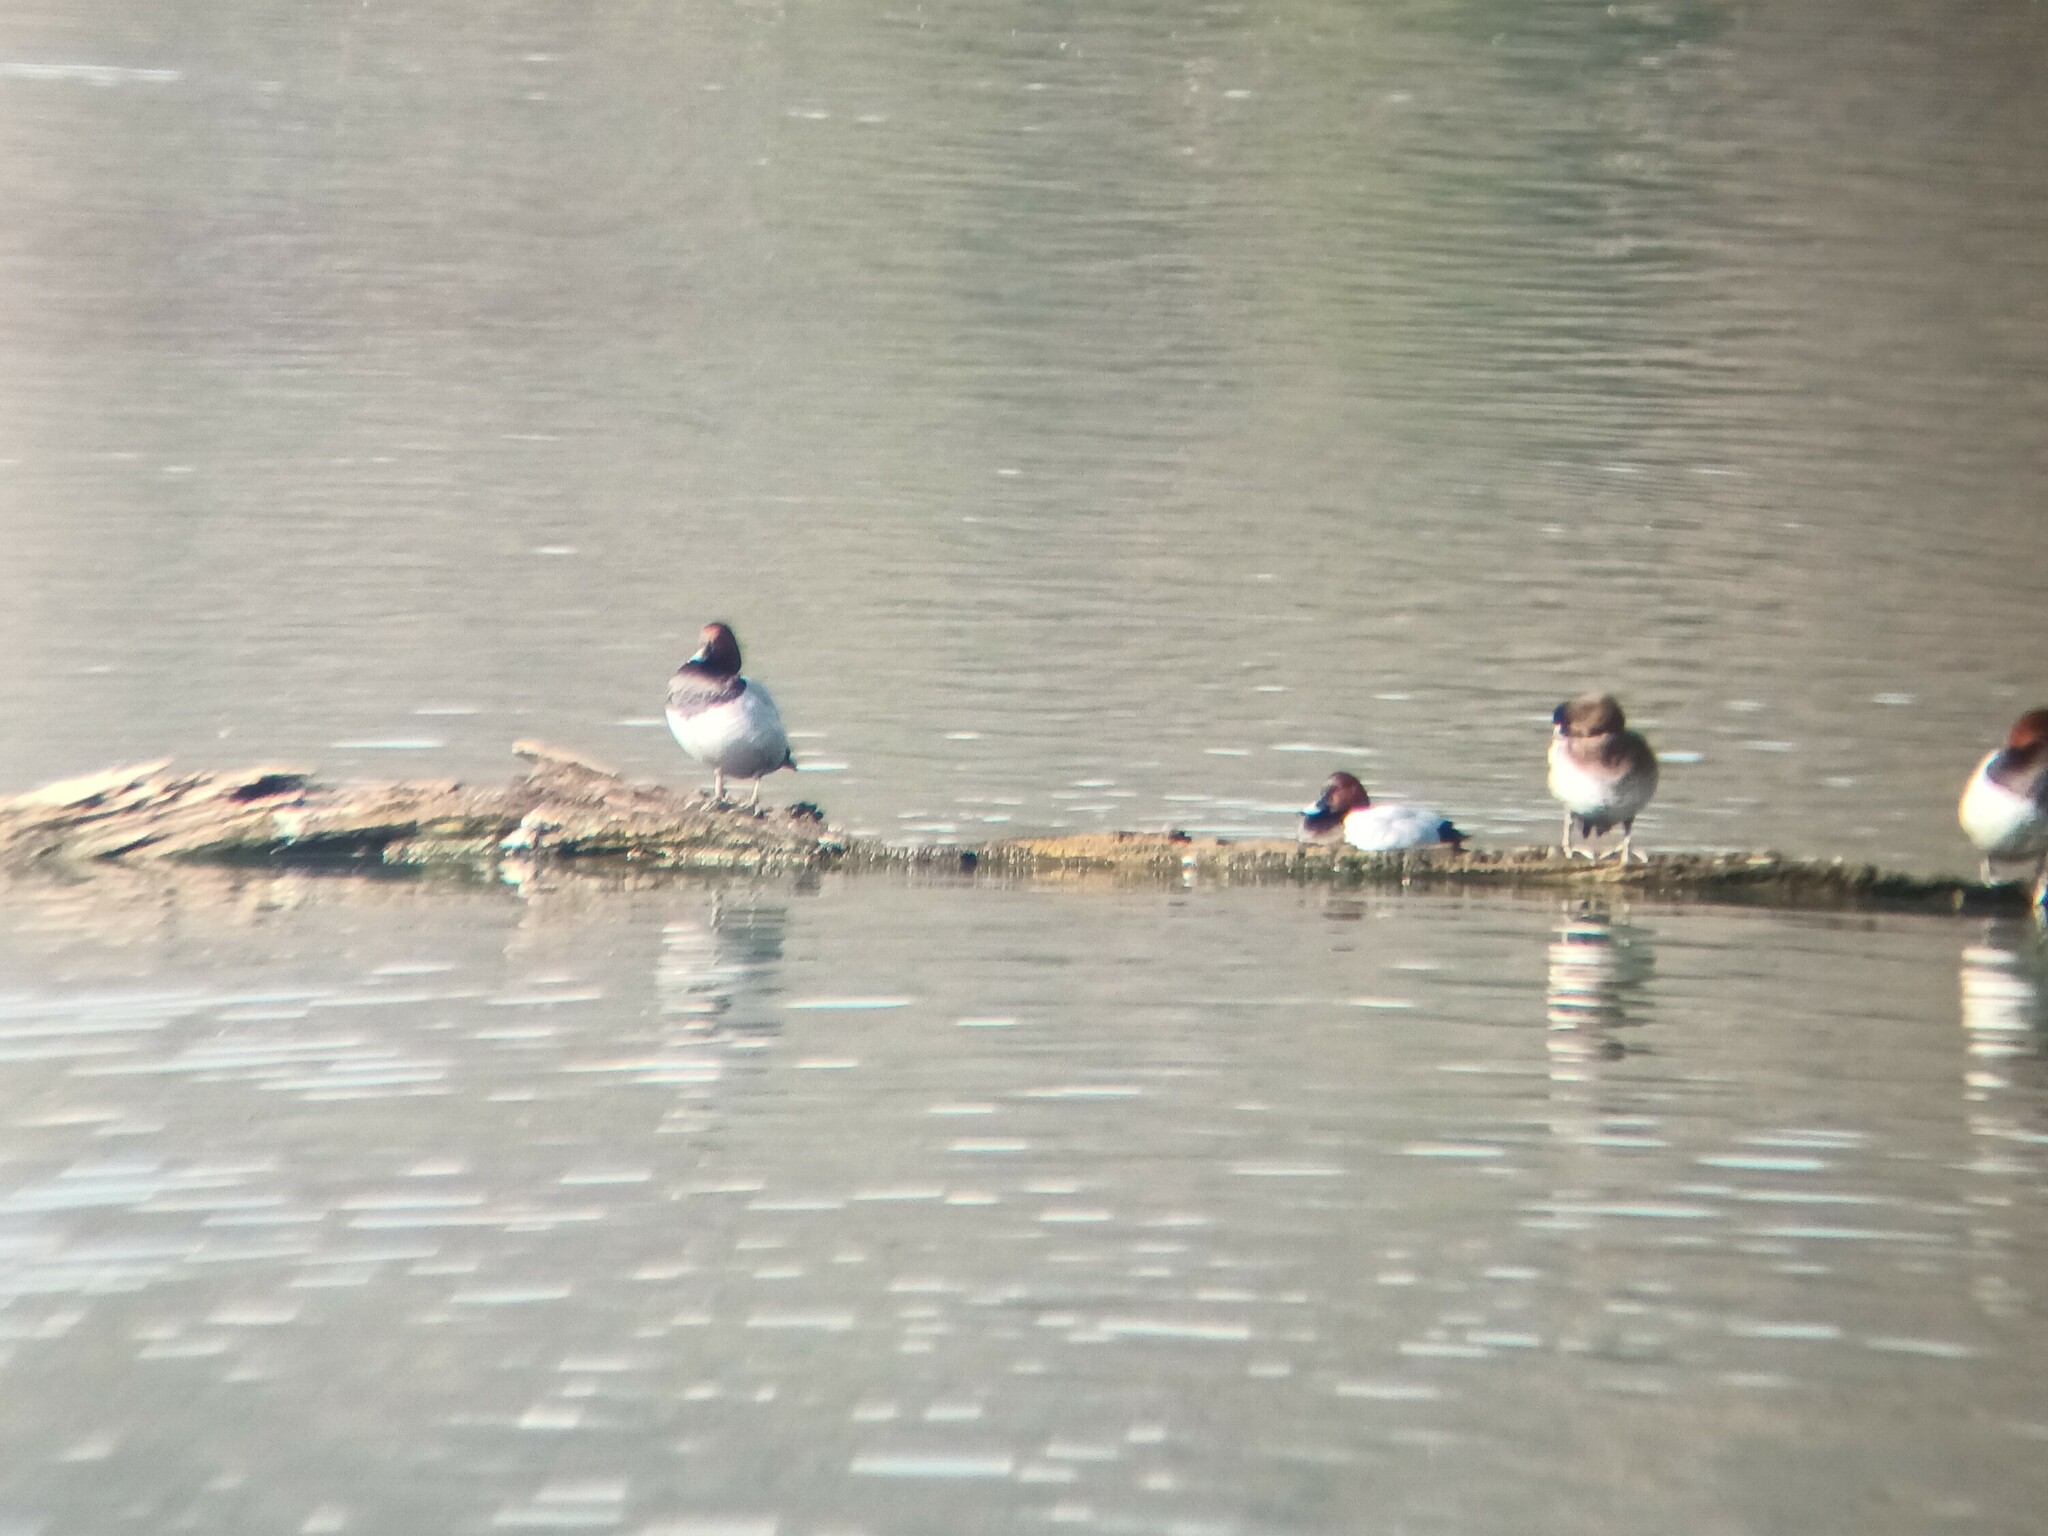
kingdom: Animalia
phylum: Chordata
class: Aves
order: Anseriformes
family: Anatidae
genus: Aythya
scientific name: Aythya ferina
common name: Common pochard
